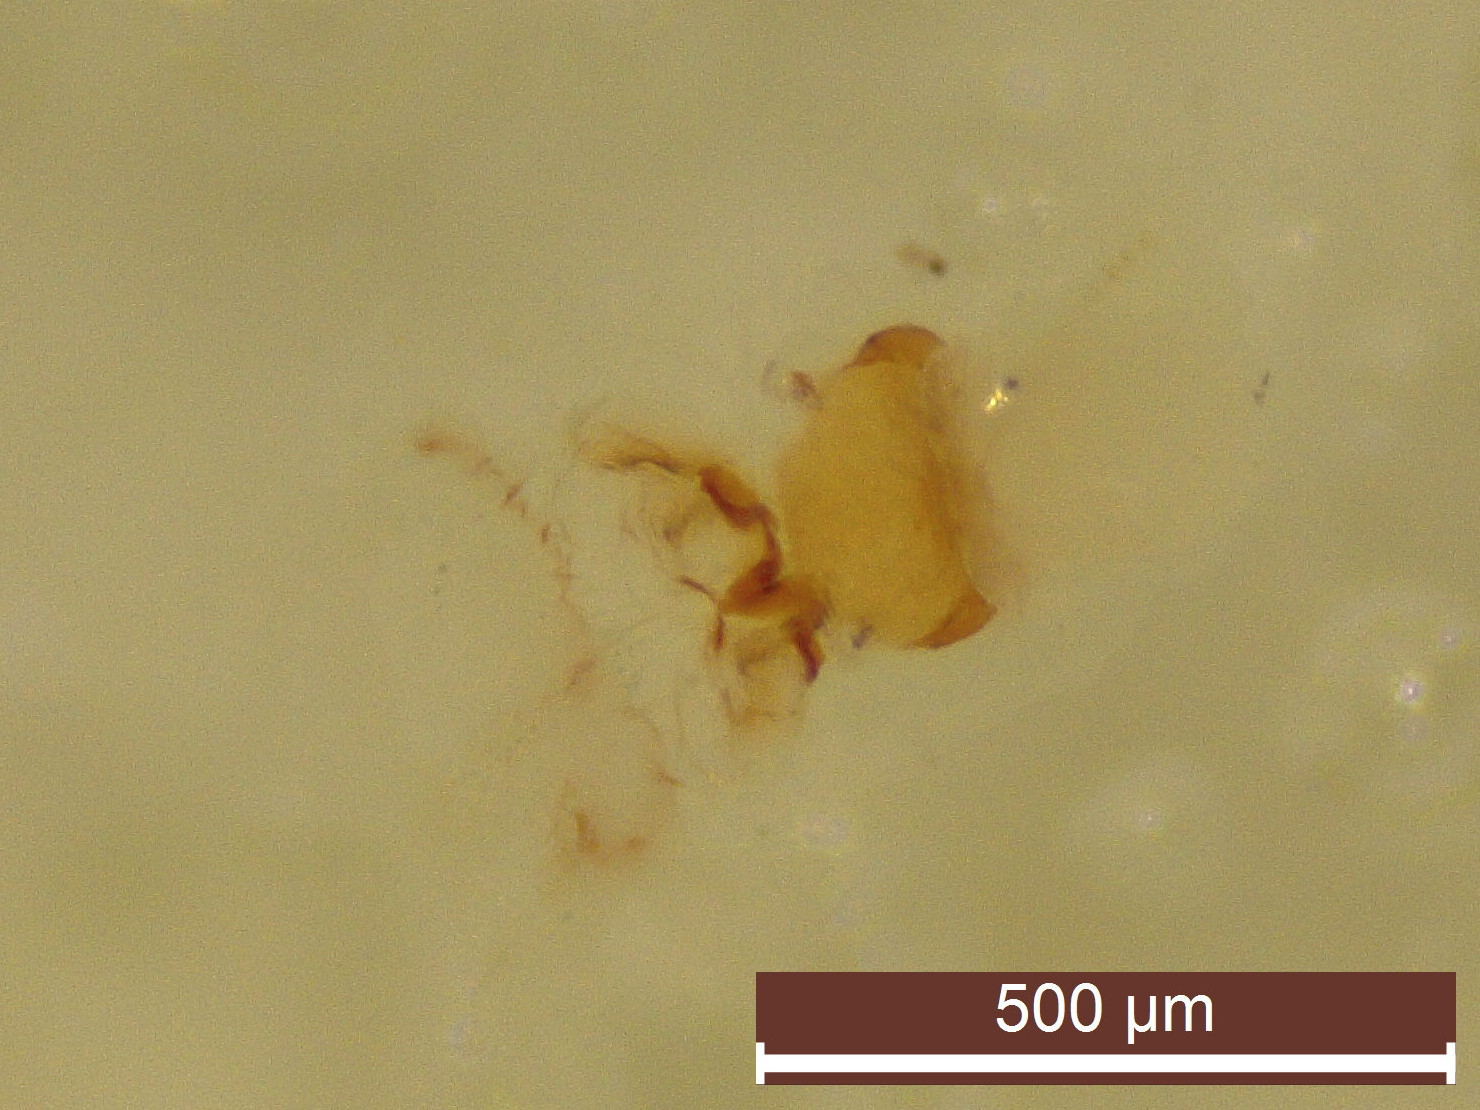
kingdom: Animalia
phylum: Arthropoda
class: Insecta
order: Coleoptera
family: Scirtidae
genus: Contacyphon
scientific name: Contacyphon laevipennis
